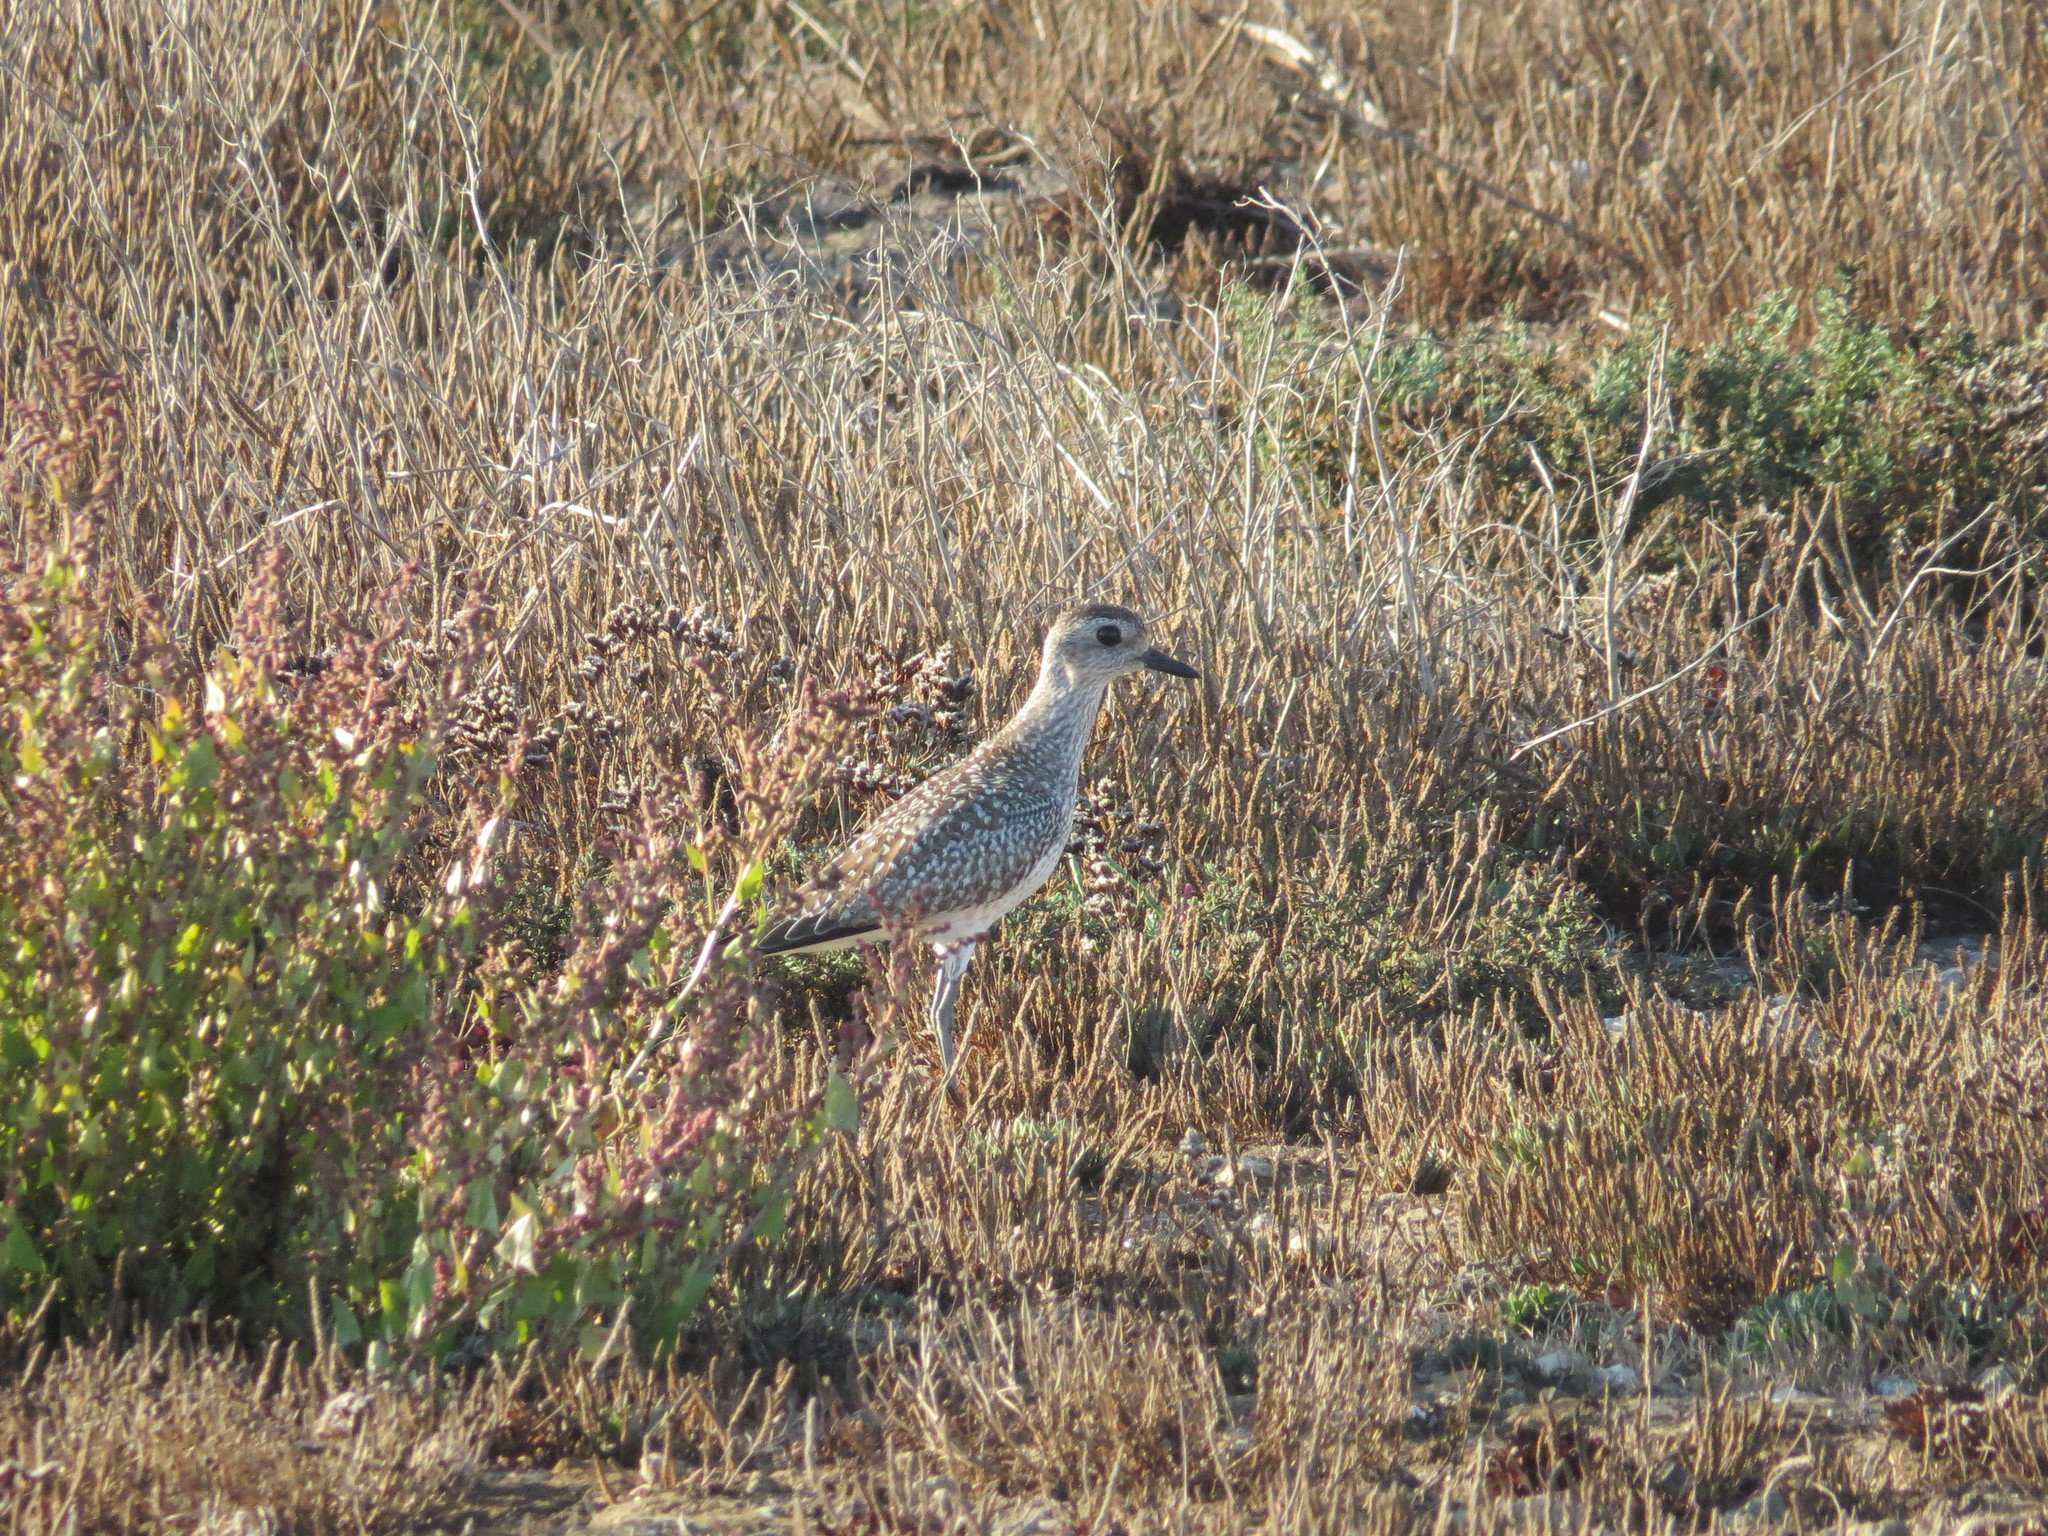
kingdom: Animalia
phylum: Chordata
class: Aves
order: Charadriiformes
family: Charadriidae
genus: Pluvialis
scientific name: Pluvialis squatarola
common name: Grey plover
